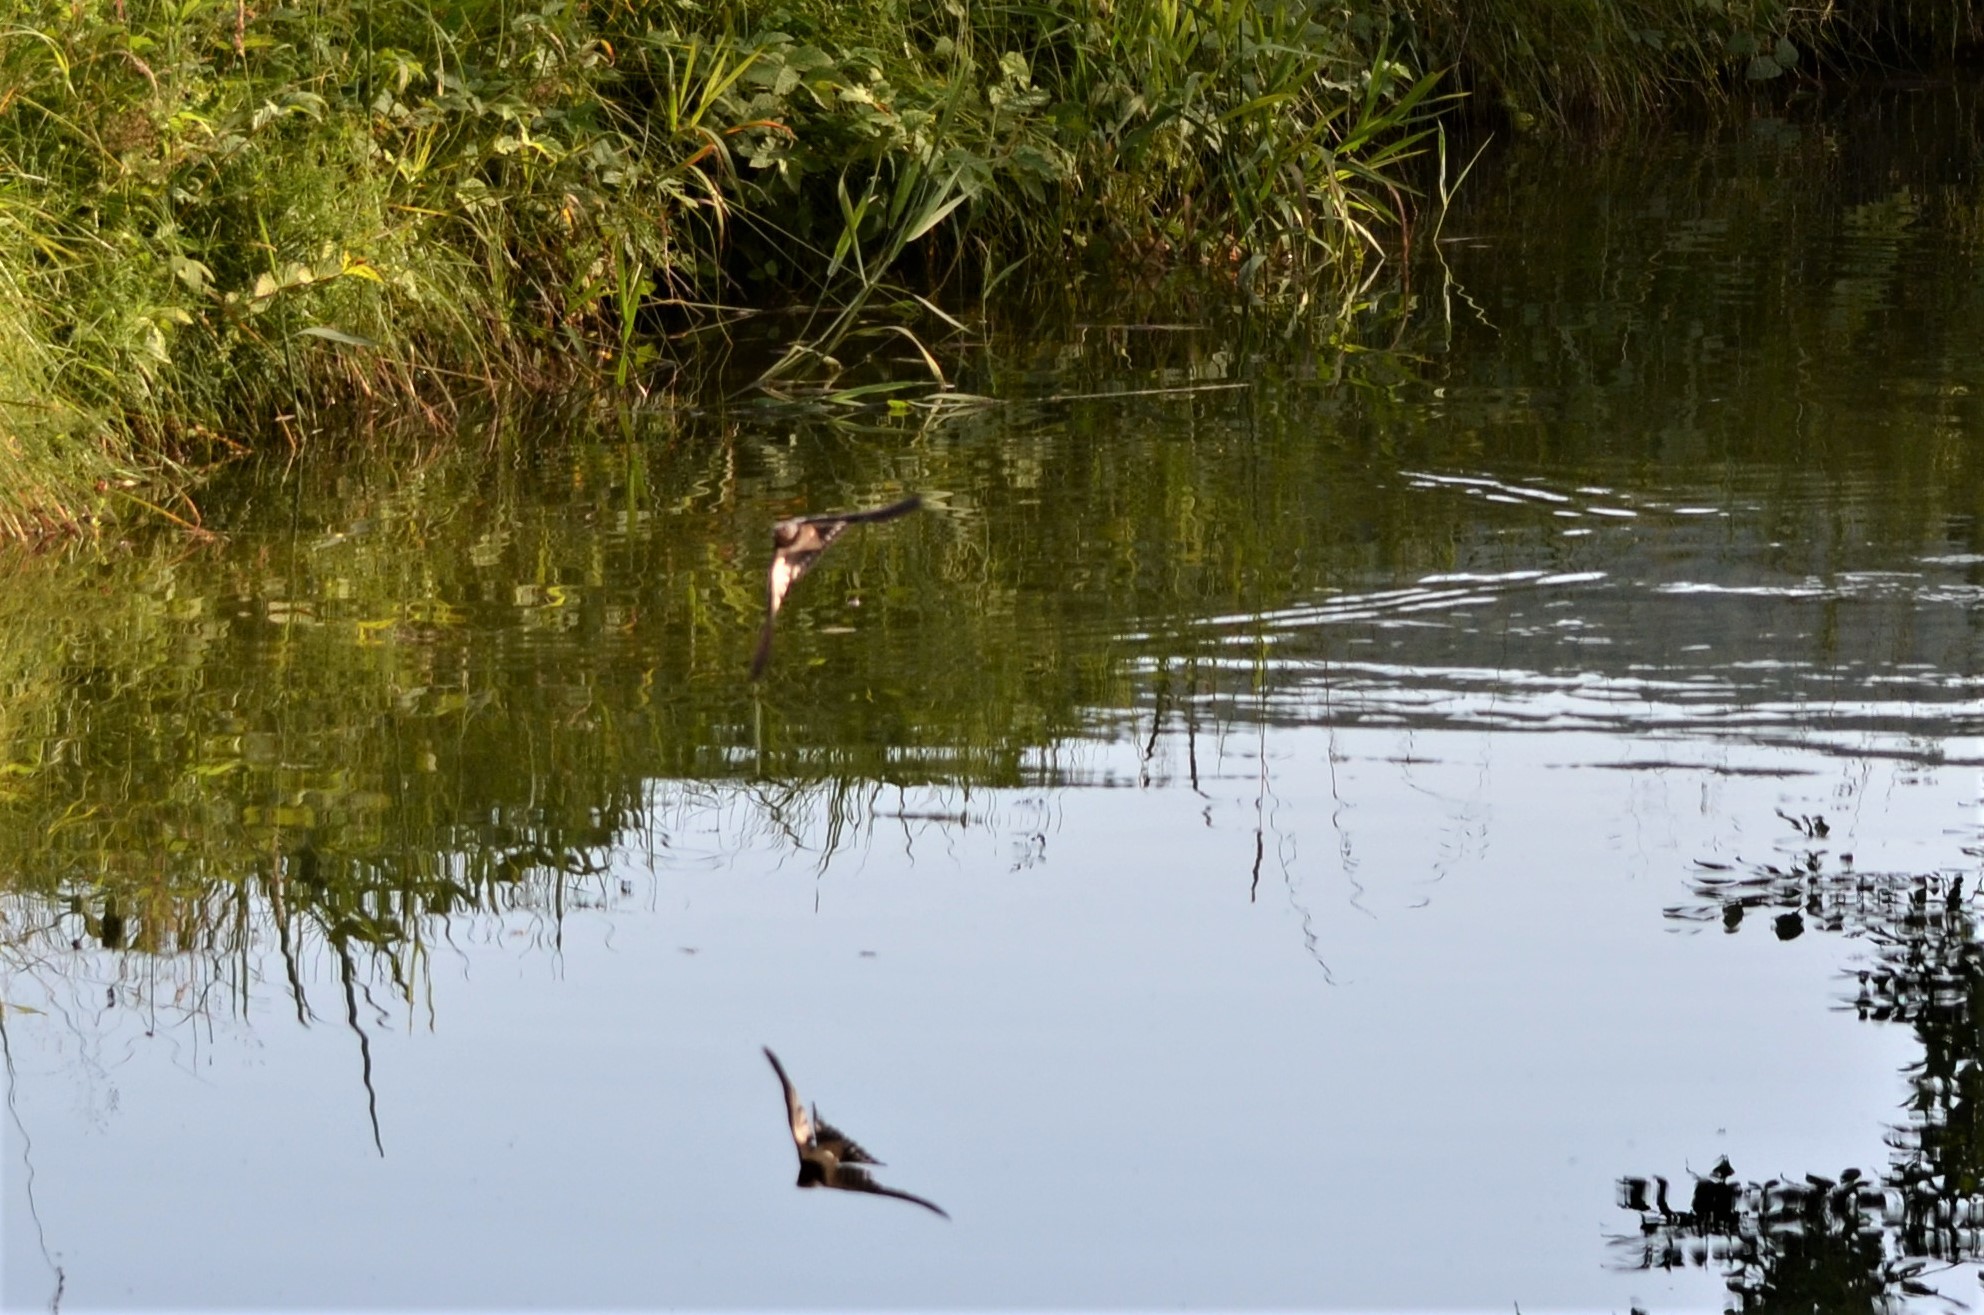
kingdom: Animalia
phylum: Chordata
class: Aves
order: Passeriformes
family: Hirundinidae
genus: Hirundo
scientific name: Hirundo rustica
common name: Barn swallow
